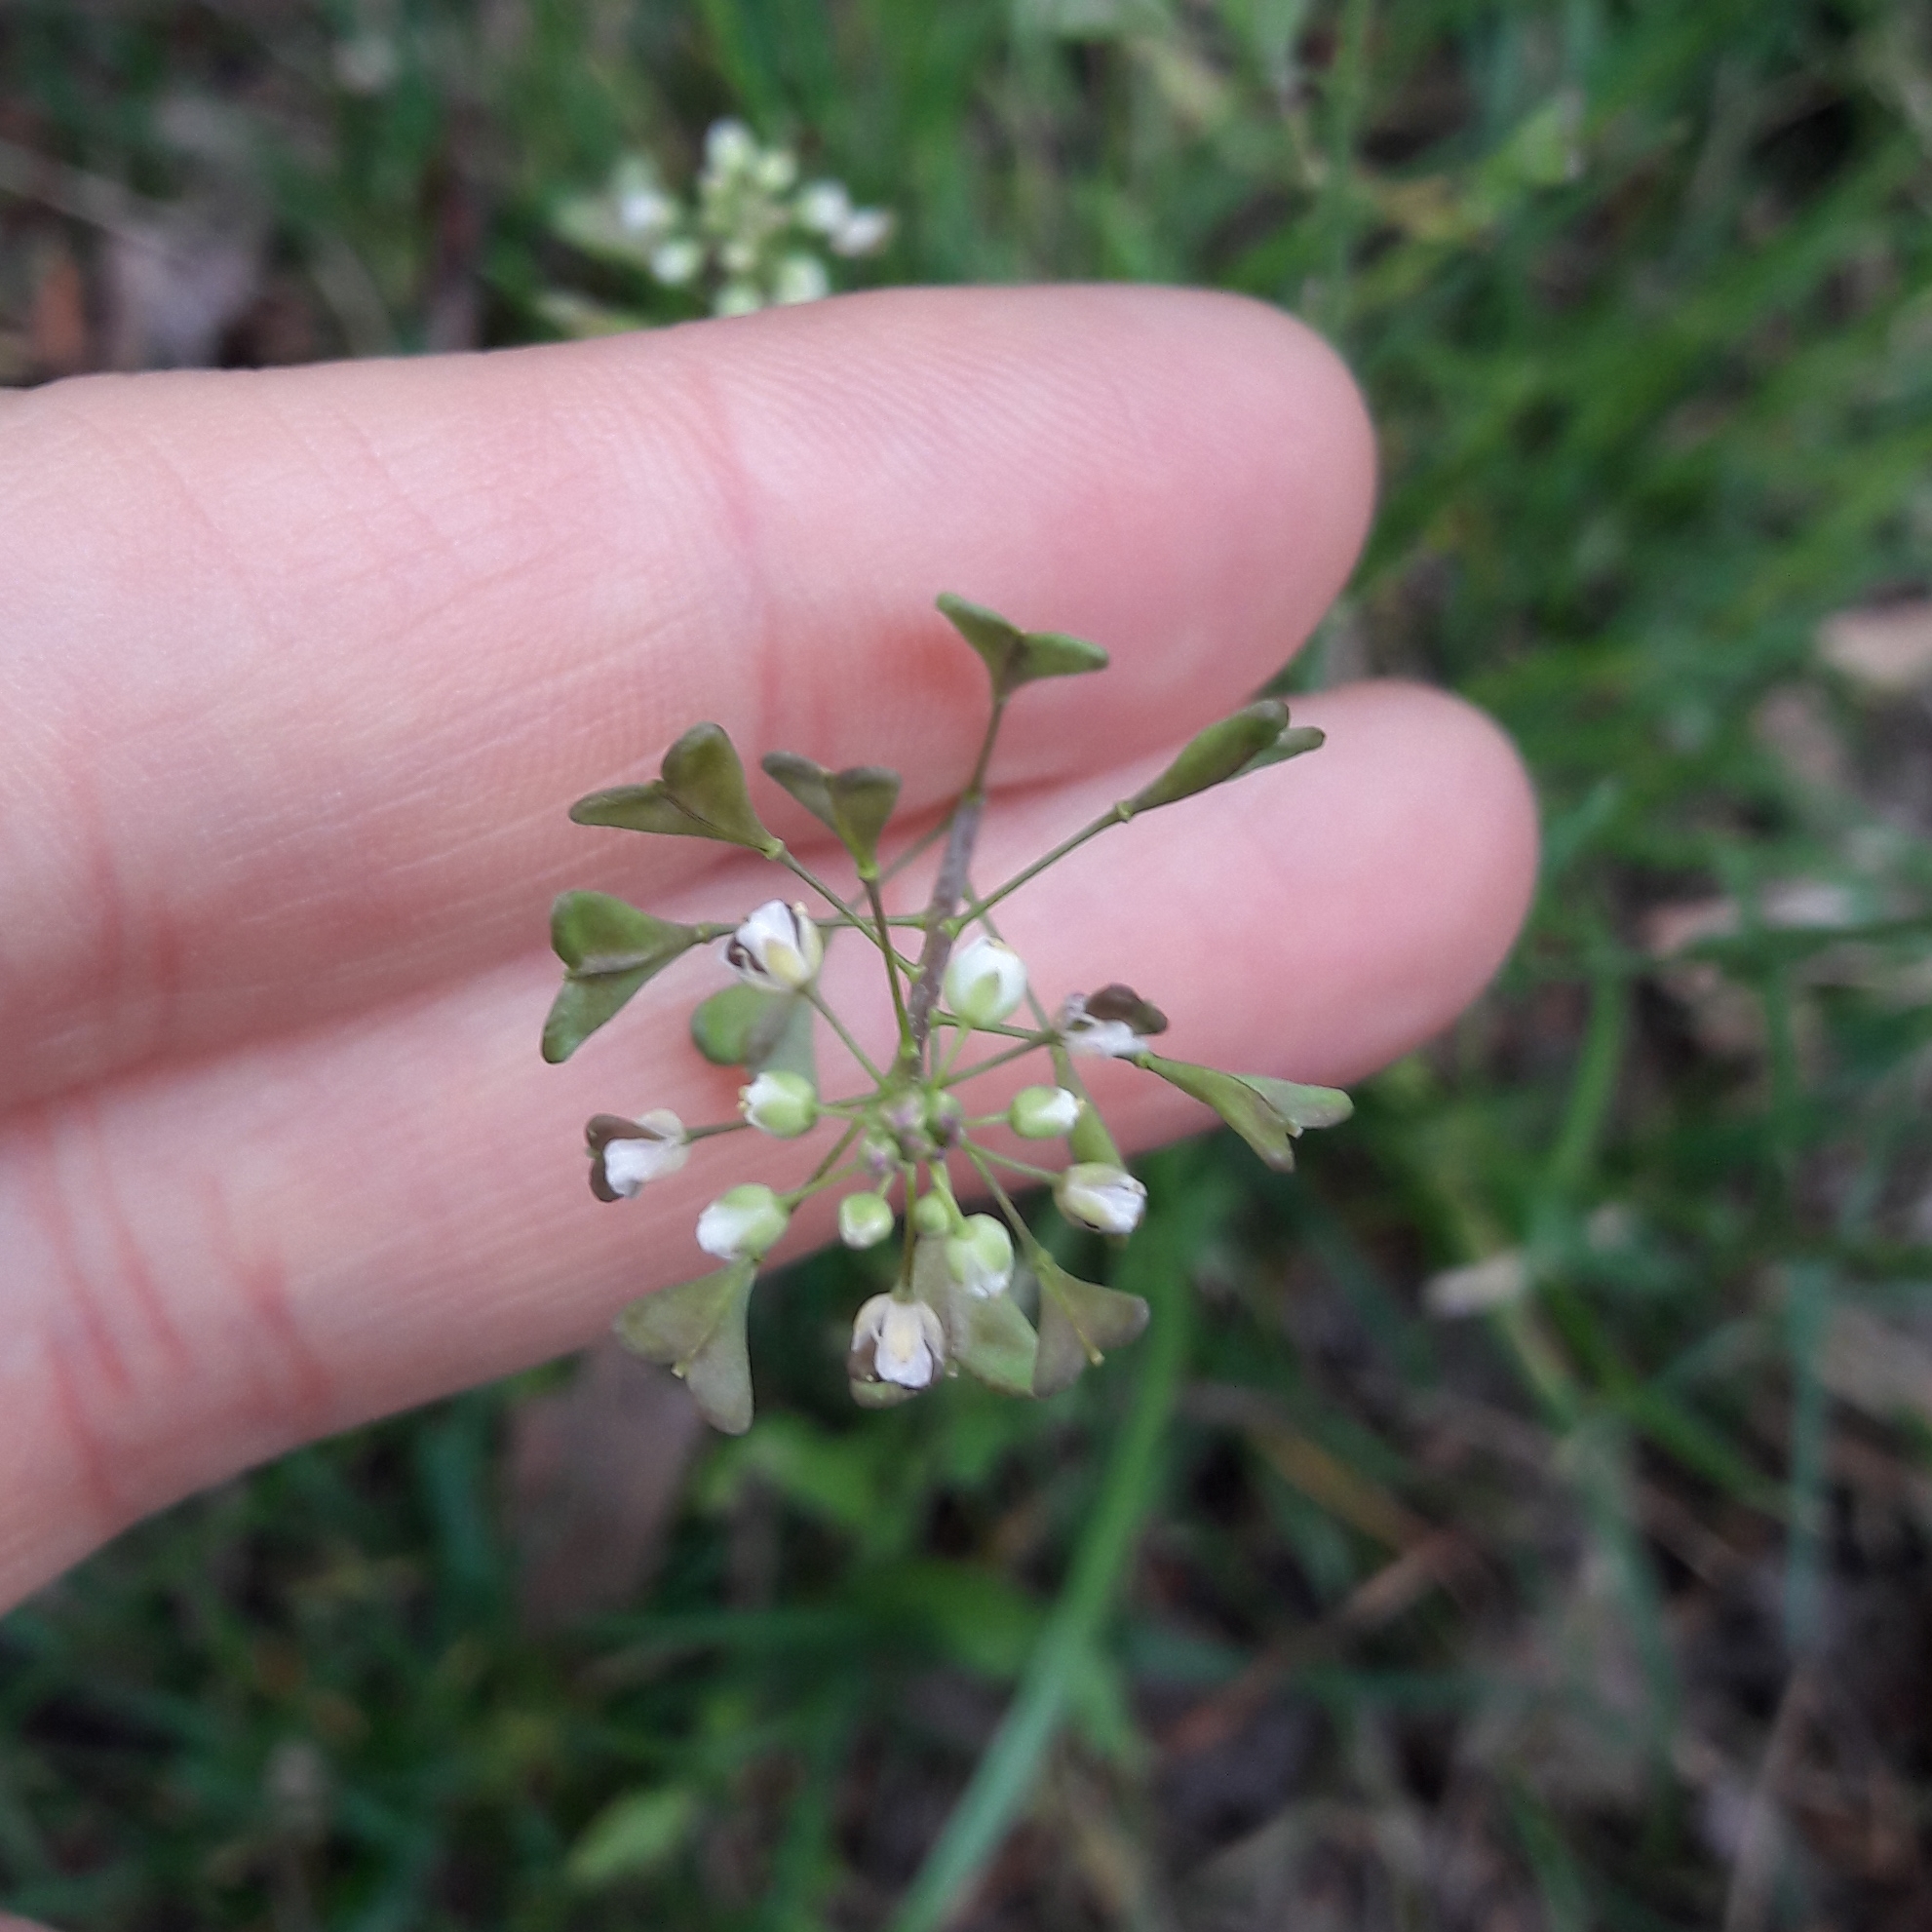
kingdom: Plantae
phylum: Tracheophyta
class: Magnoliopsida
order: Brassicales
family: Brassicaceae
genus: Capsella
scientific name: Capsella bursa-pastoris
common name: Shepherd's purse
